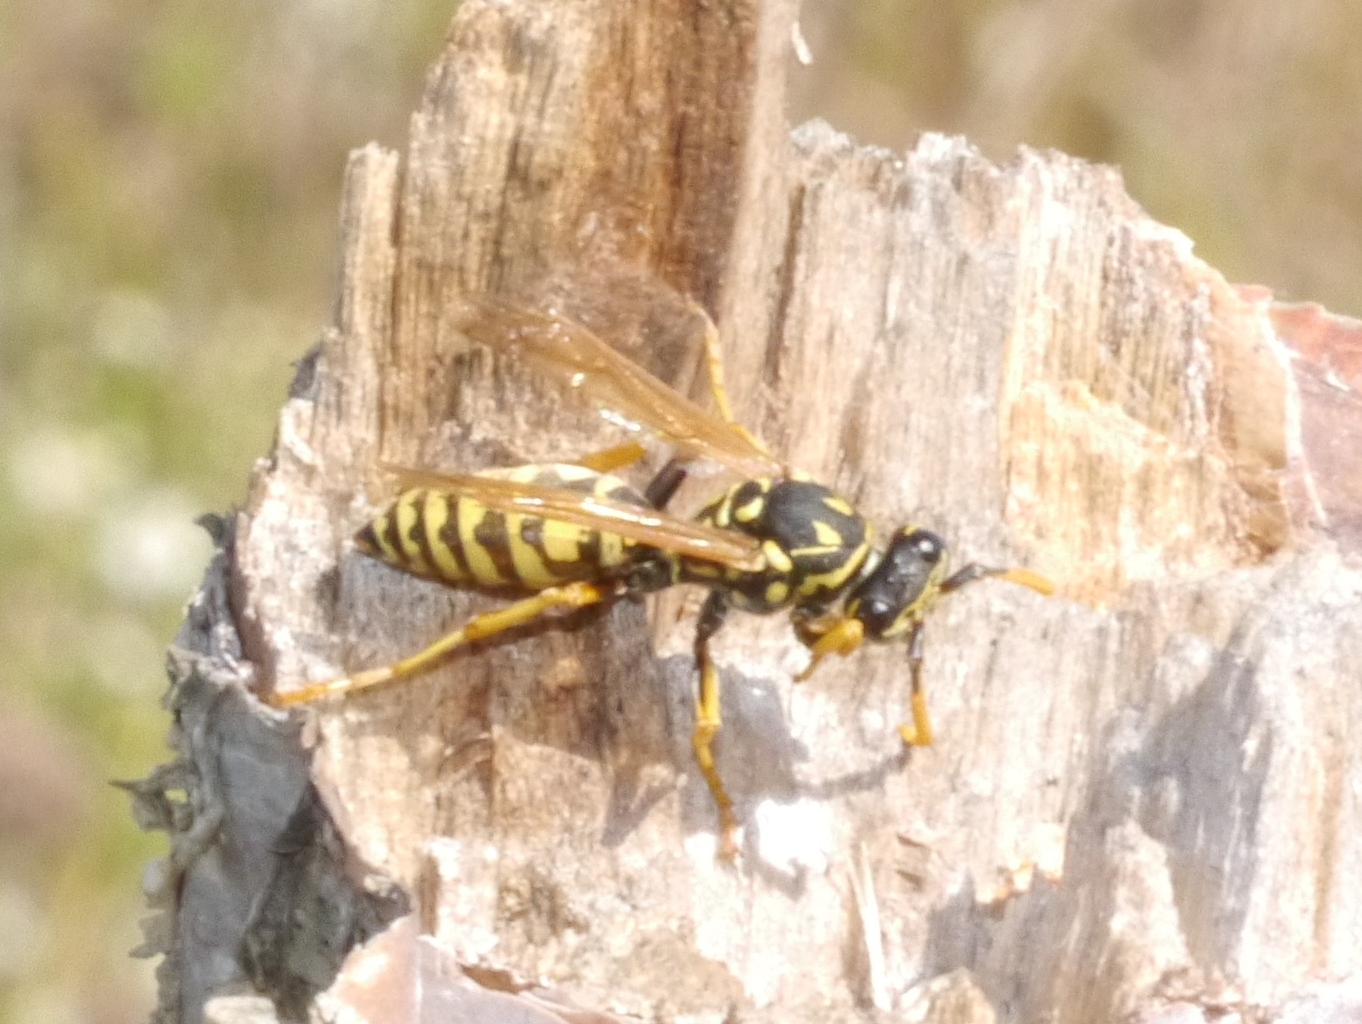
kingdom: Animalia
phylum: Arthropoda
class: Insecta
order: Hymenoptera
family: Eumenidae
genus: Polistes
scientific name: Polistes dominula
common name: Paper wasp
